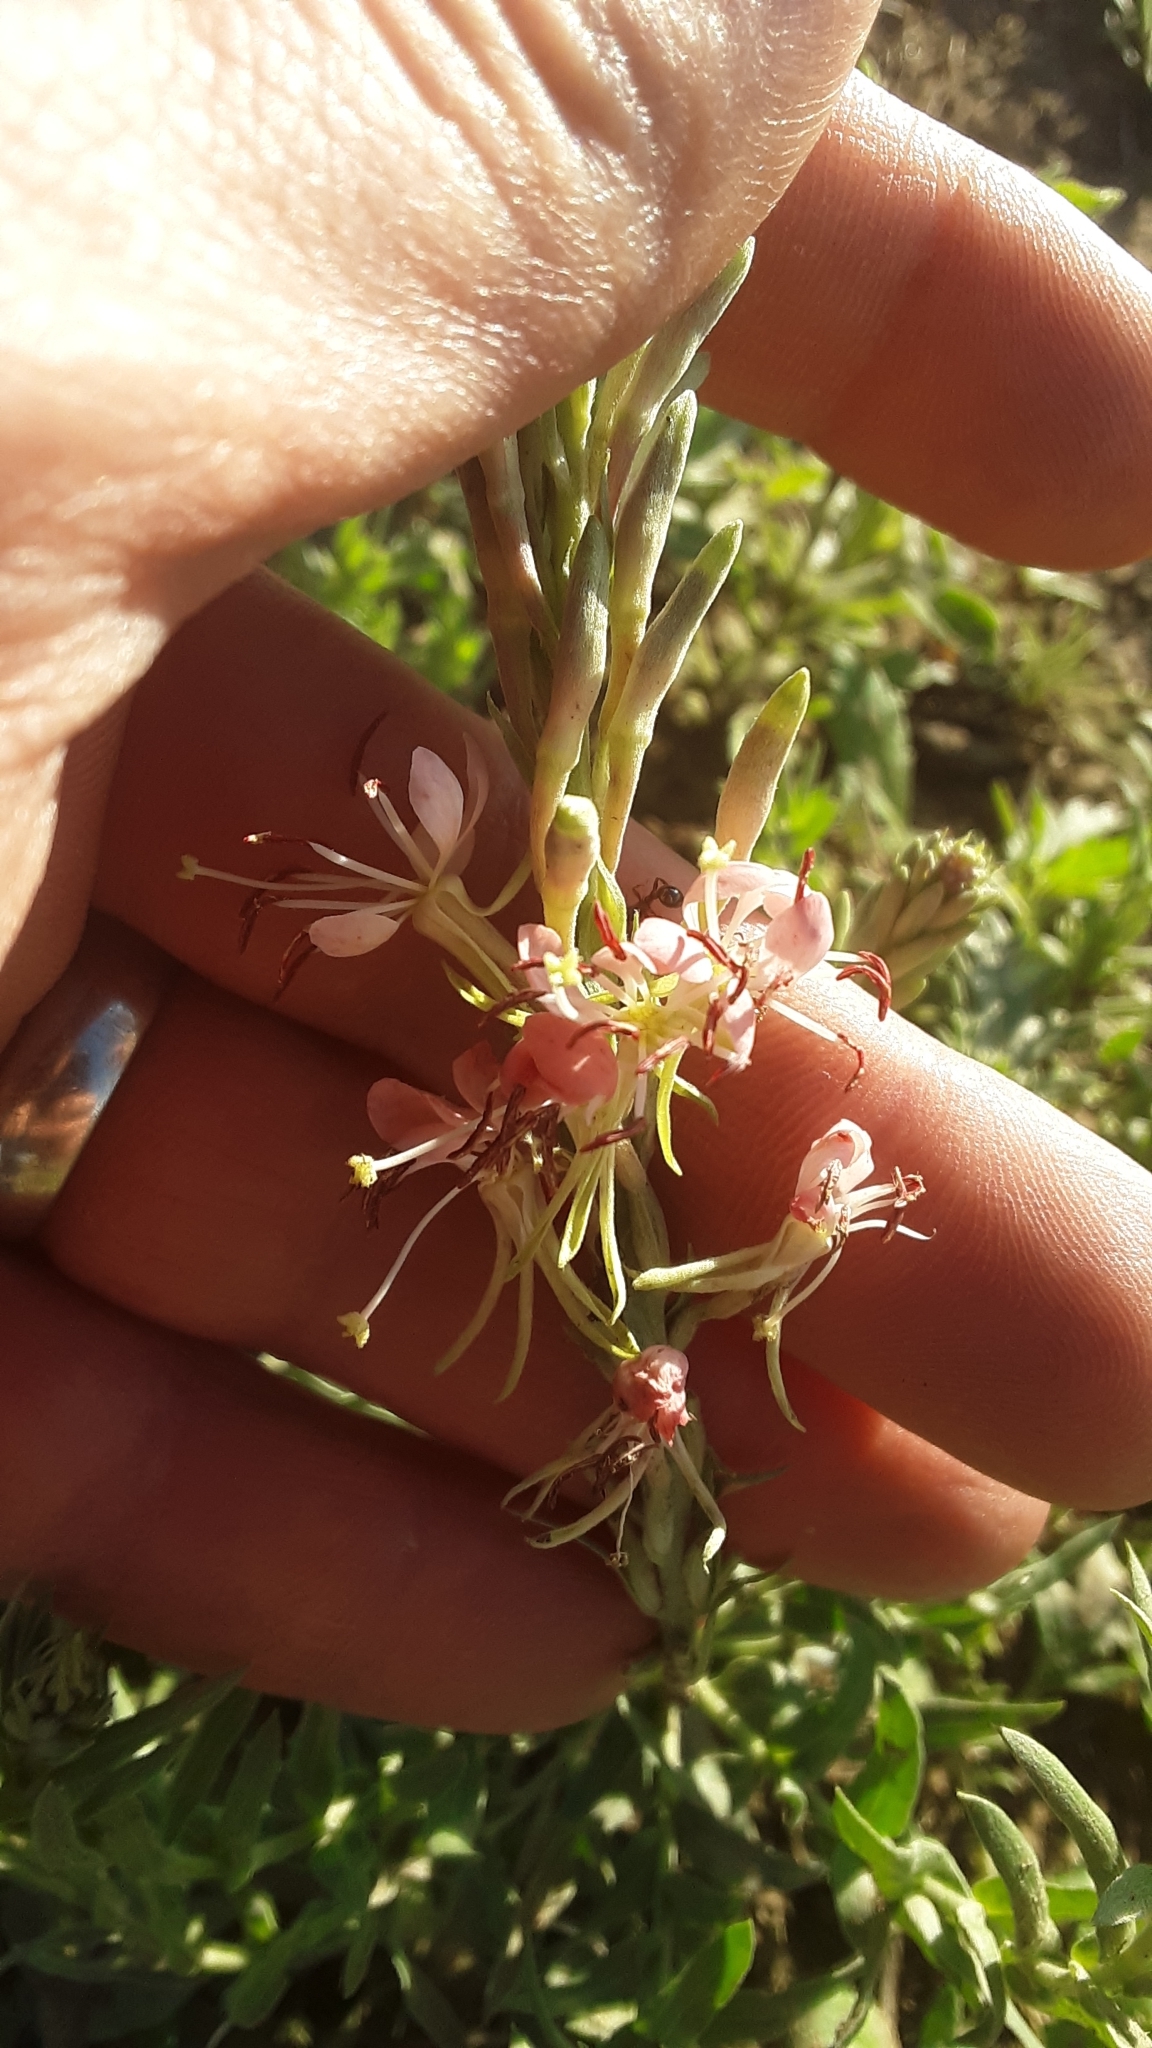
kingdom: Plantae
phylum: Tracheophyta
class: Magnoliopsida
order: Myrtales
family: Onagraceae
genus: Oenothera
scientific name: Oenothera suffrutescens
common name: Scarlet beeblossom
